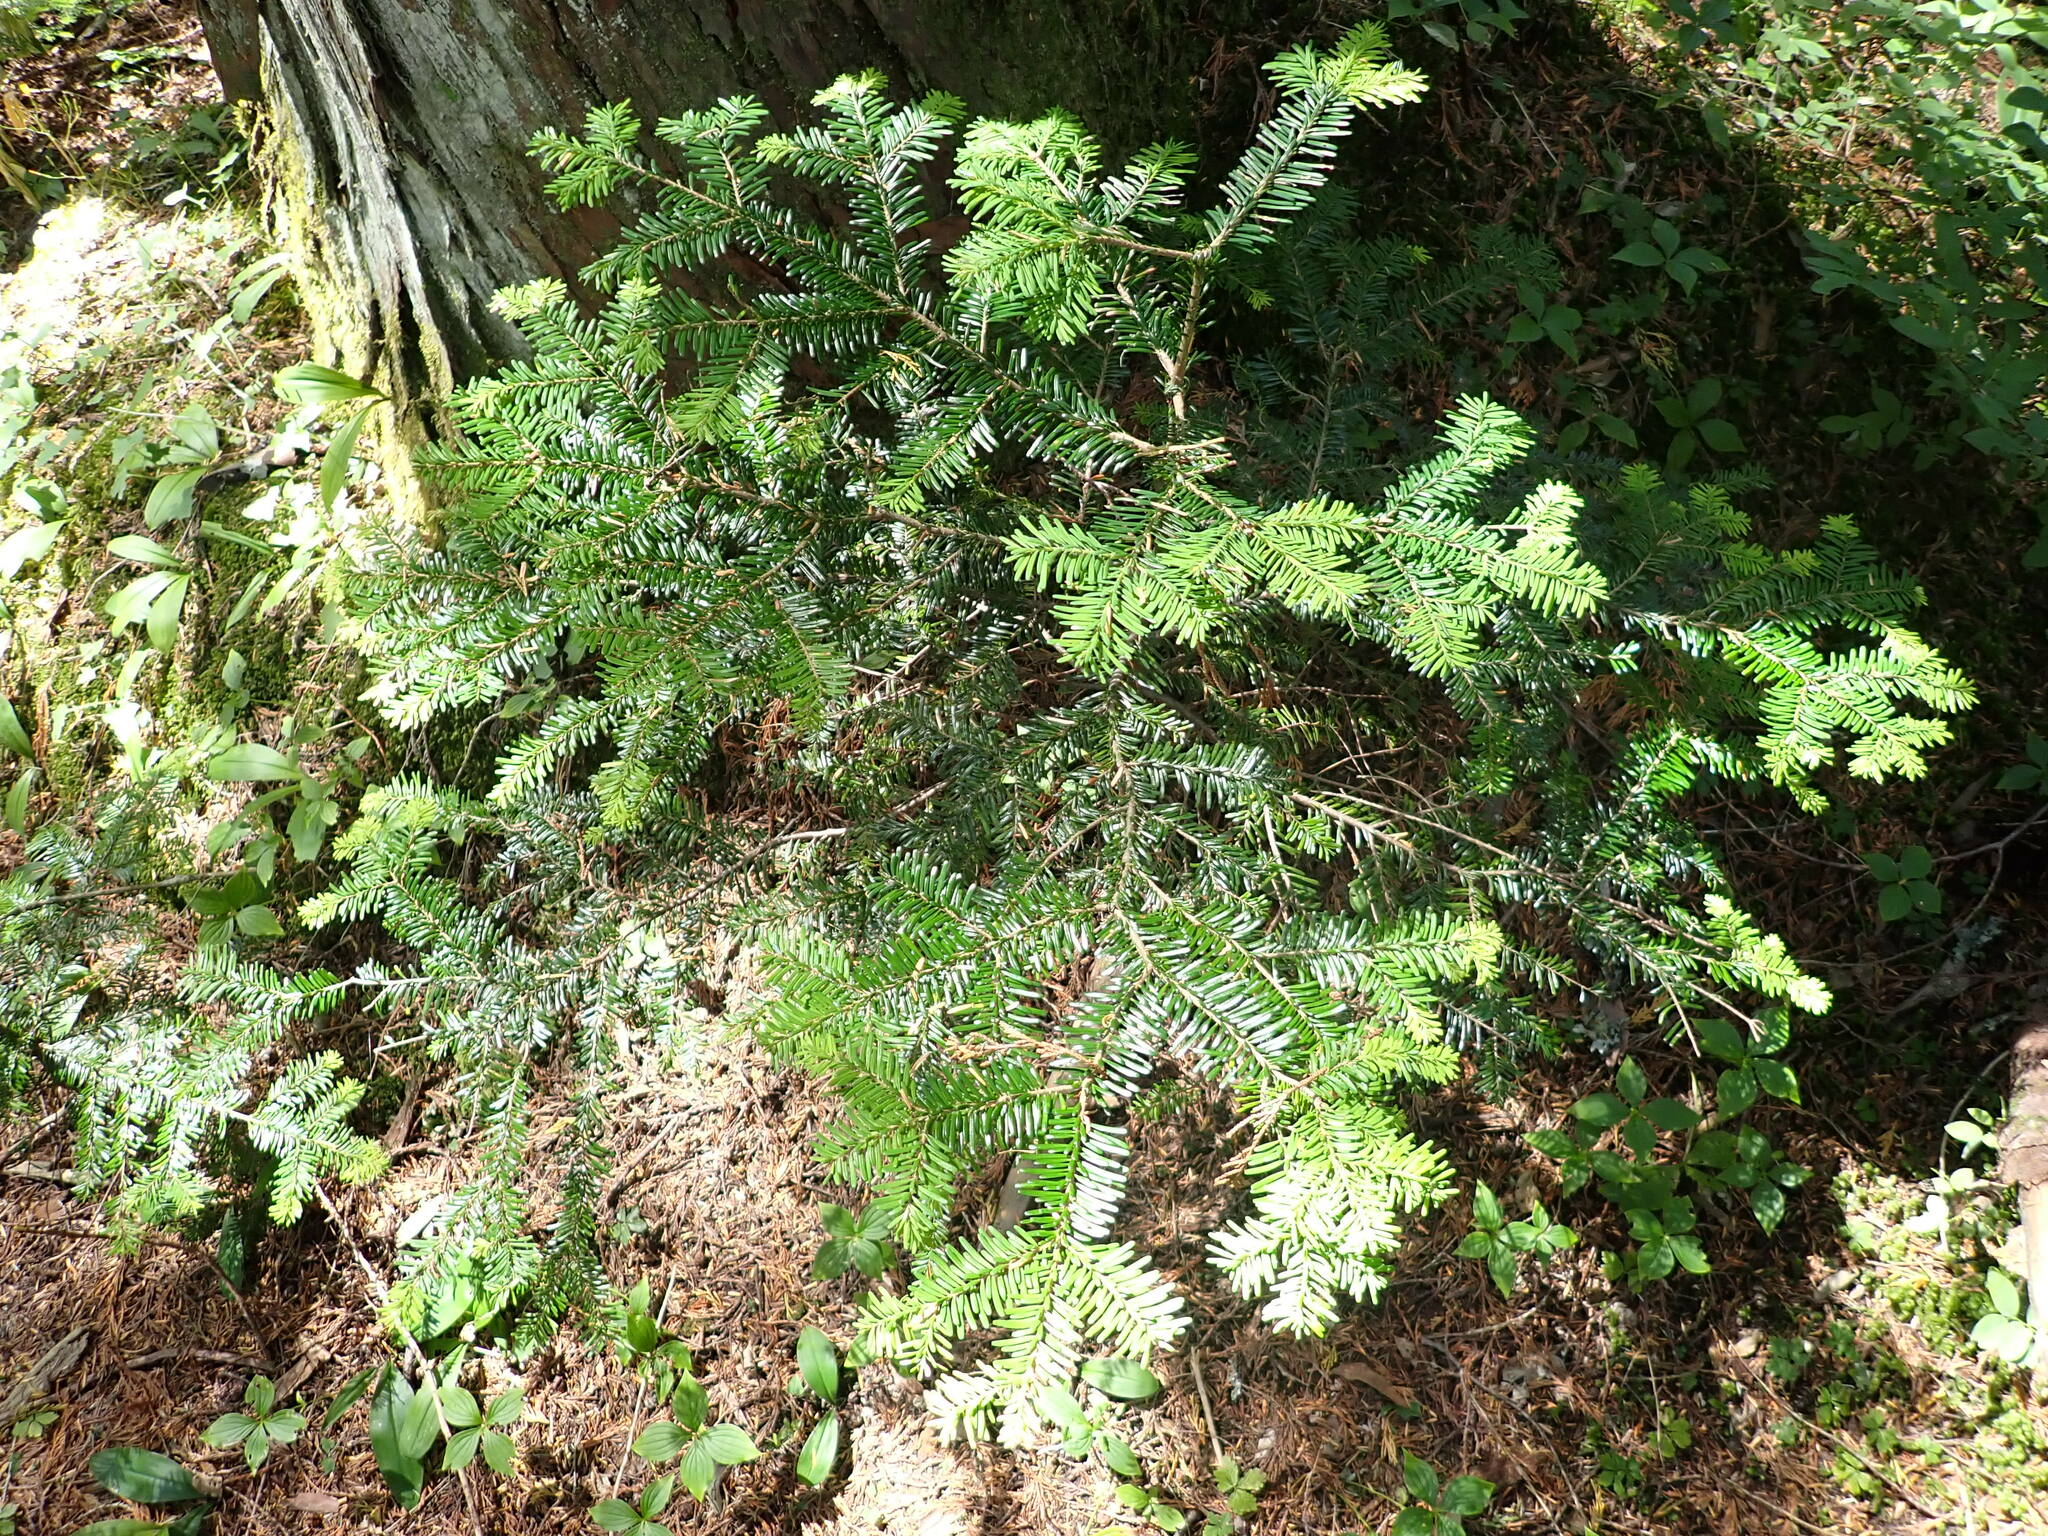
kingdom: Plantae
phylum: Tracheophyta
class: Pinopsida
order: Pinales
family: Pinaceae
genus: Abies
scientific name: Abies amabilis
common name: Pacific silver fir
